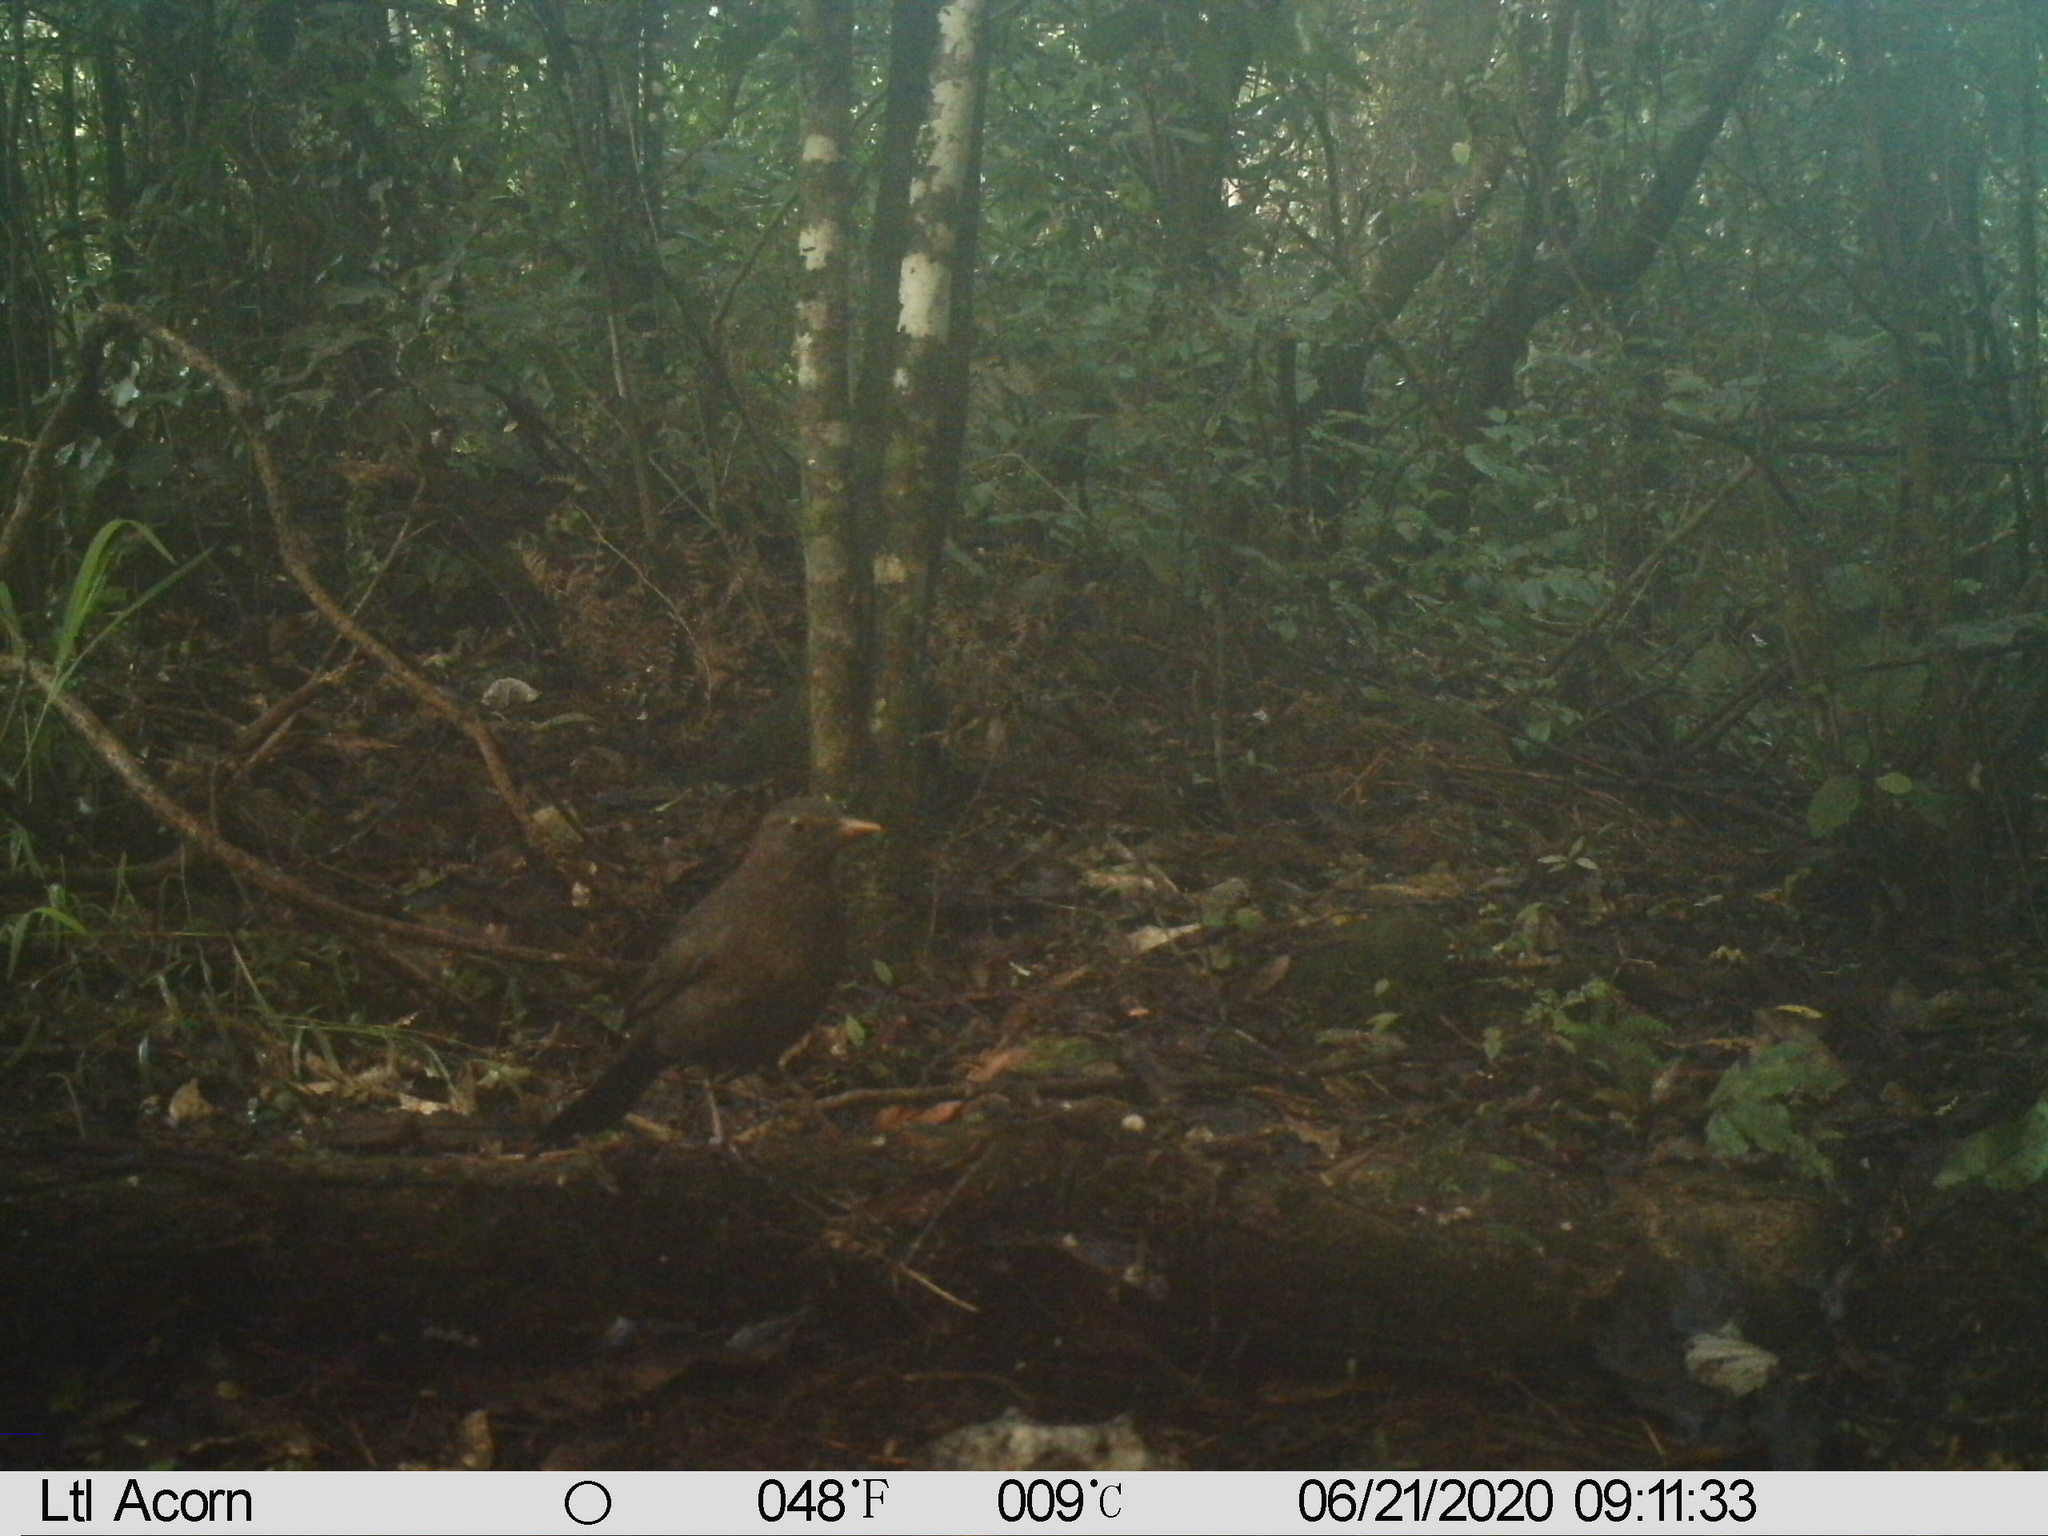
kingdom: Animalia
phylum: Chordata
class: Aves
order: Passeriformes
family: Turdidae
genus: Turdus
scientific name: Turdus merula
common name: Common blackbird
